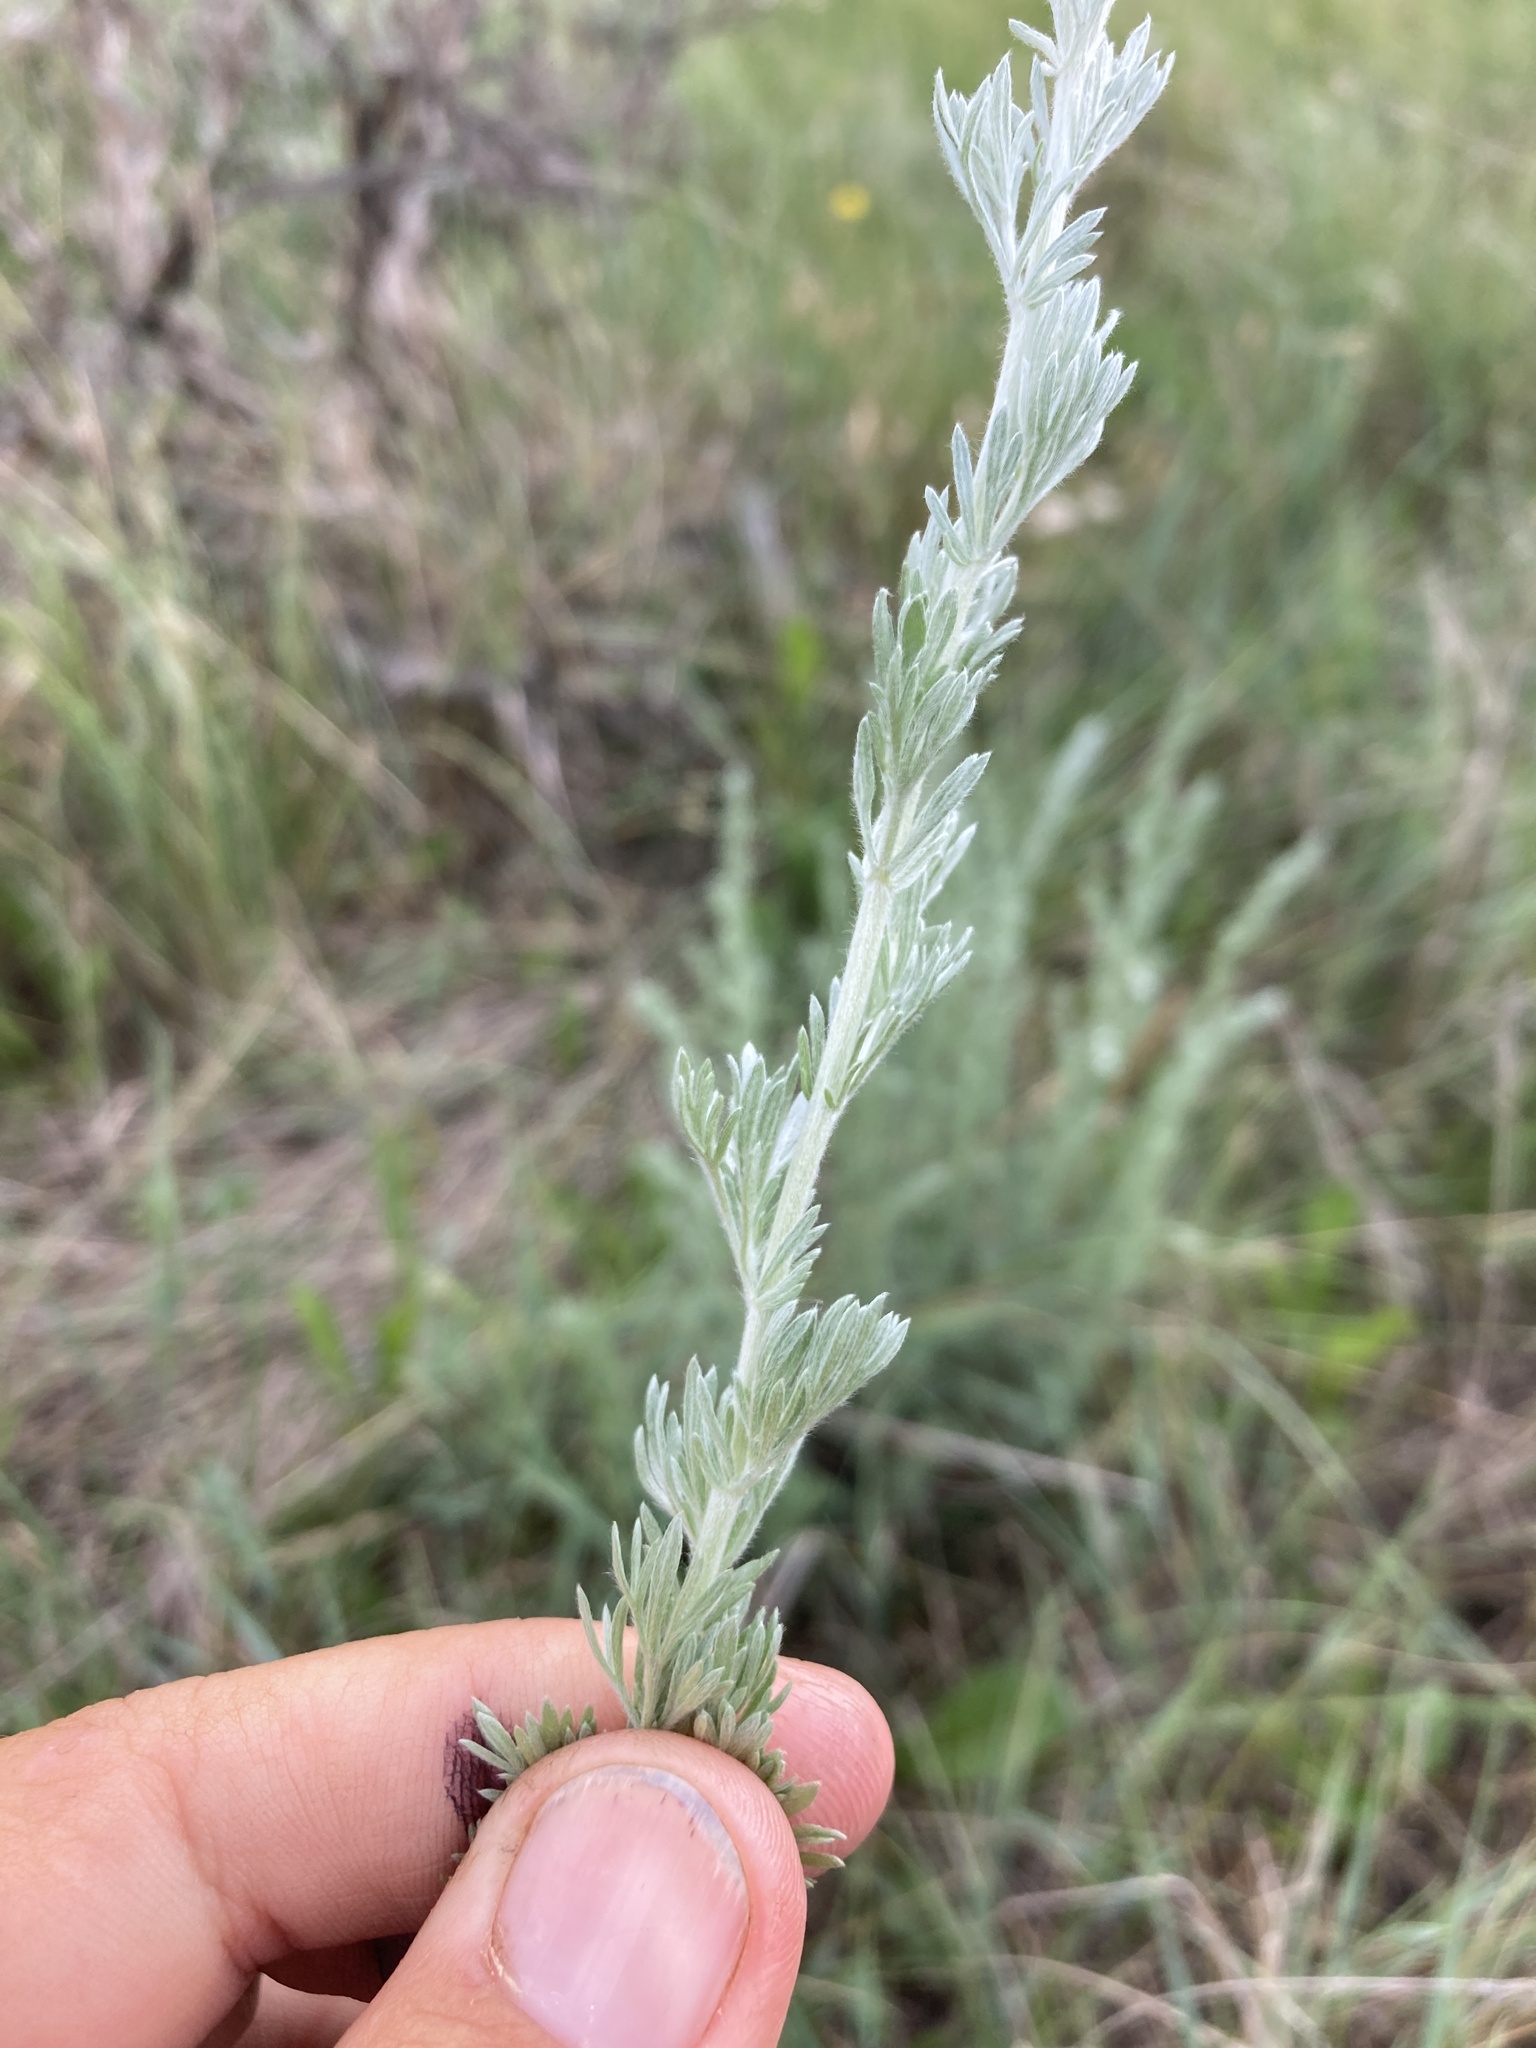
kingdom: Plantae
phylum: Tracheophyta
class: Magnoliopsida
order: Asterales
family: Asteraceae
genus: Artemisia
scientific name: Artemisia frigida
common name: Prairie sagewort
